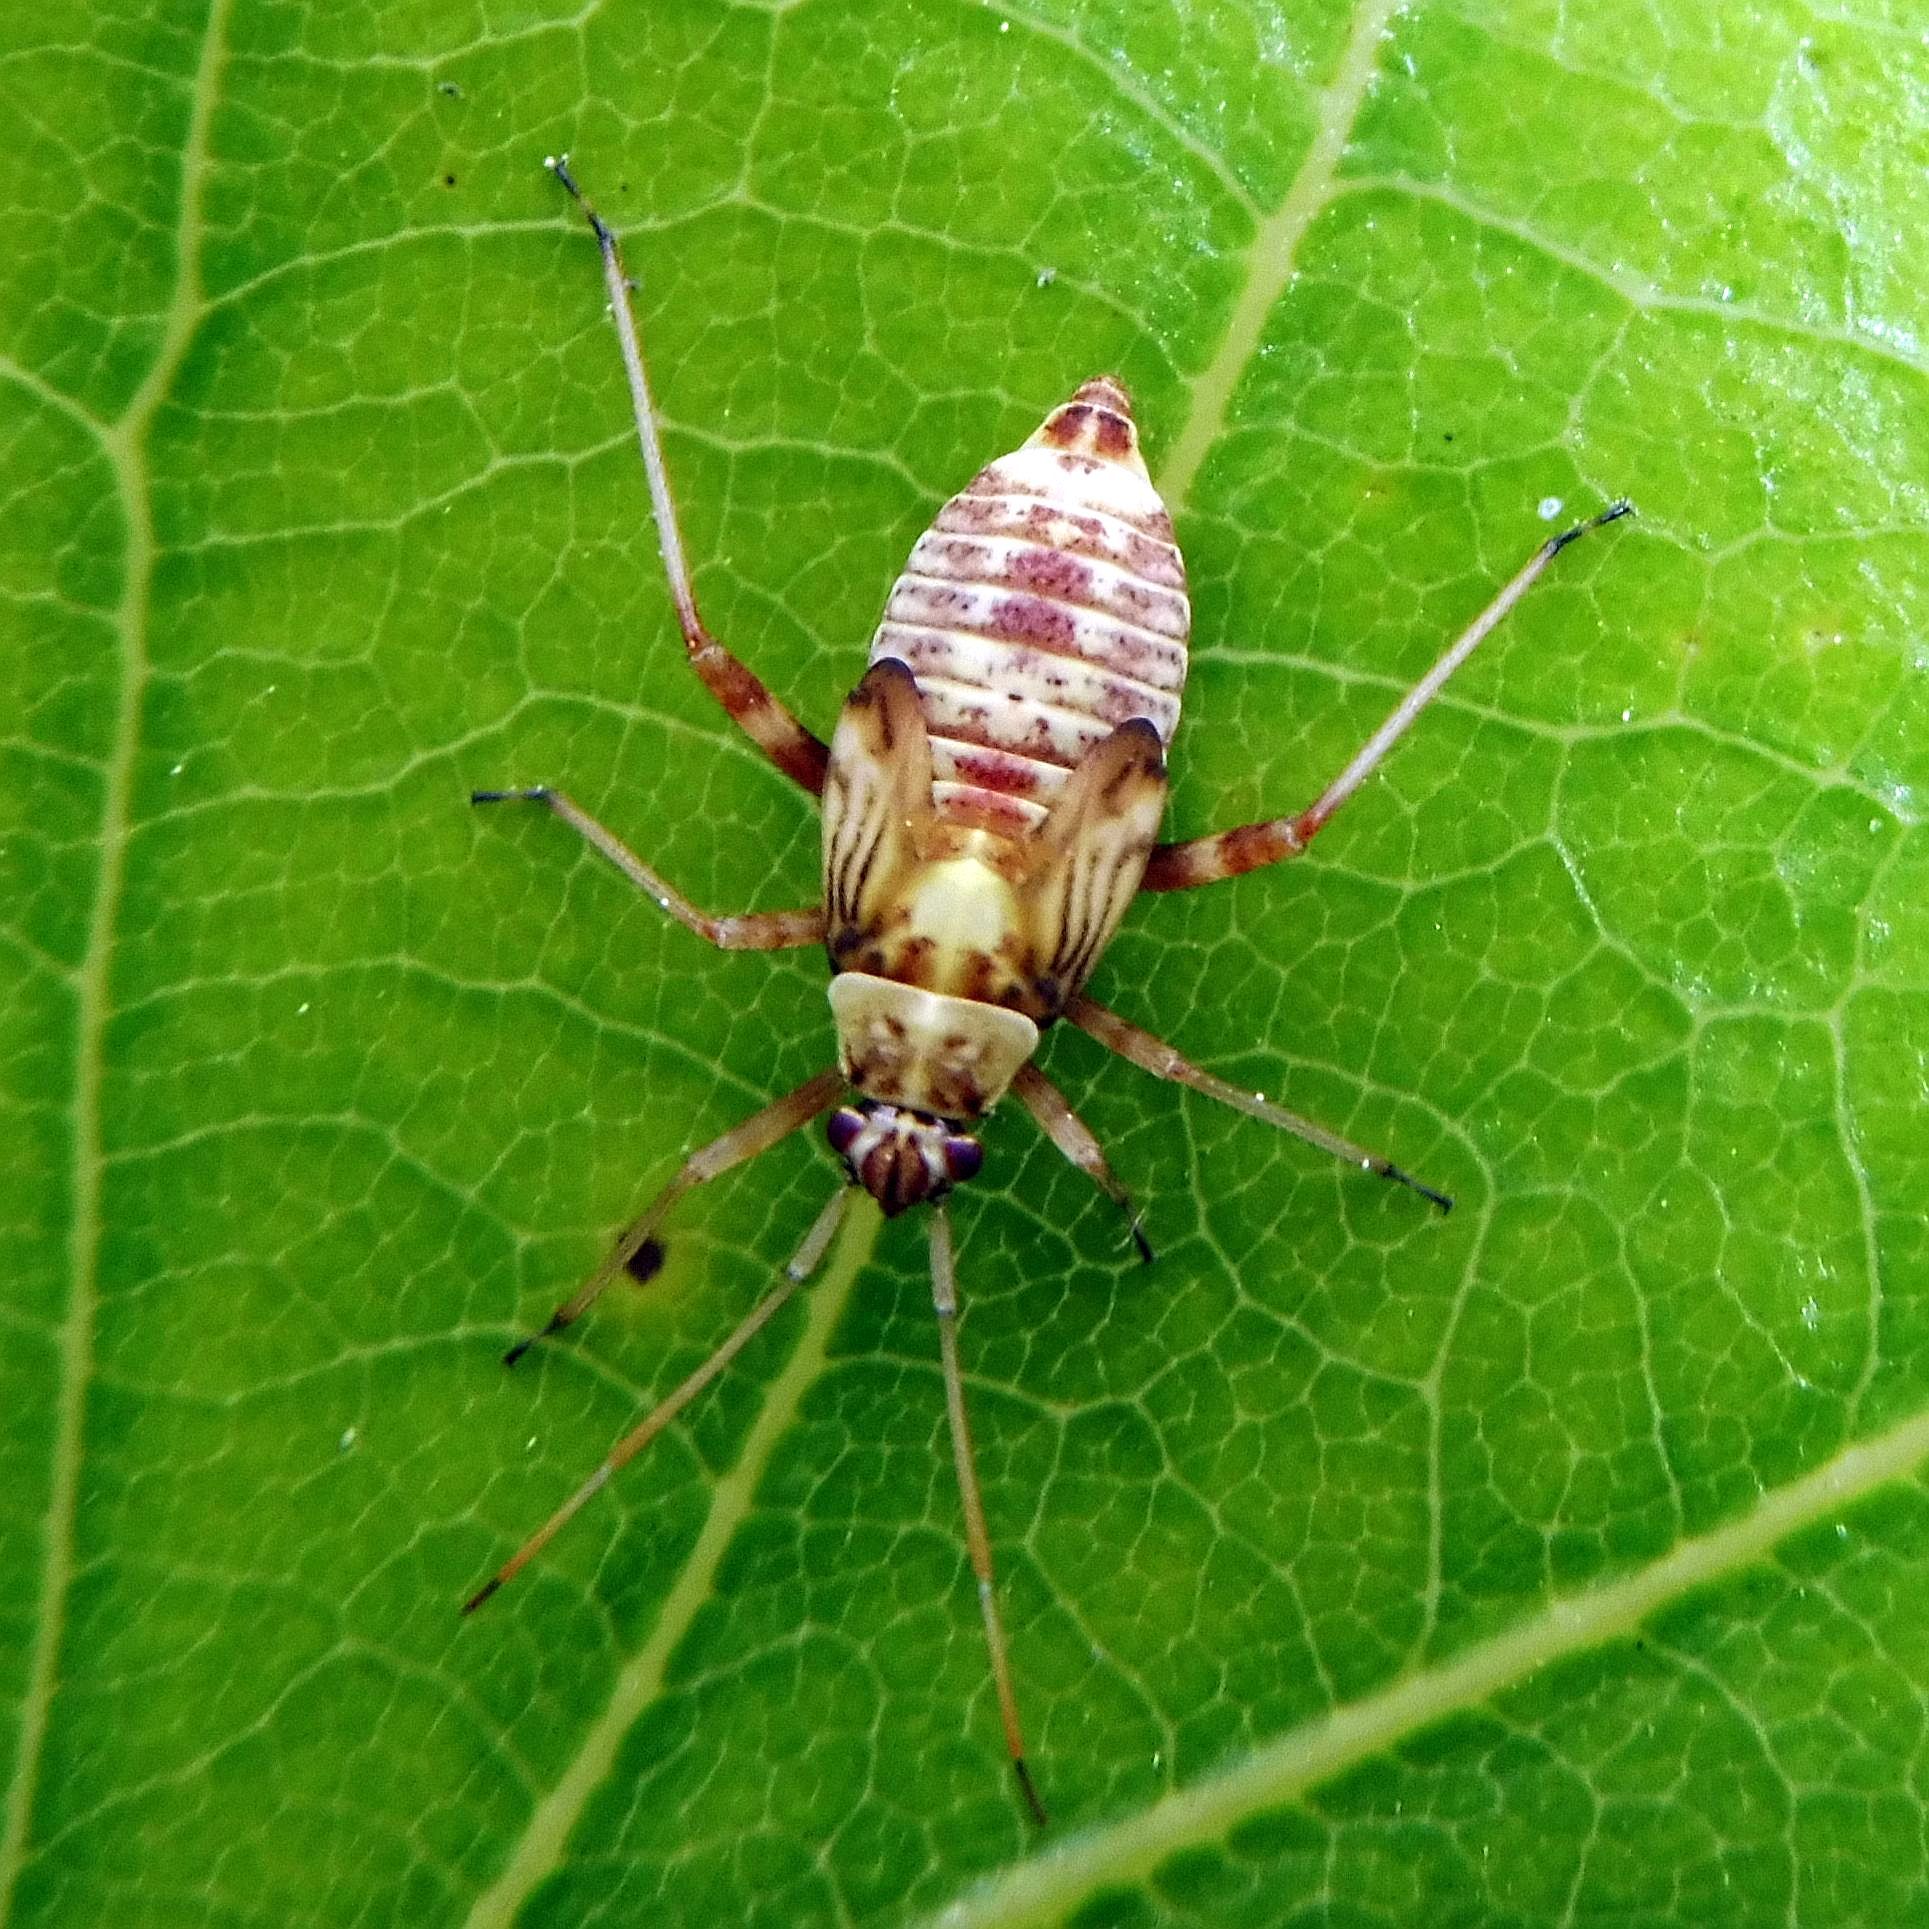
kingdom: Animalia
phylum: Arthropoda
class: Insecta
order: Hemiptera
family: Miridae
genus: Rhabdomiris
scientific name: Rhabdomiris striatellus
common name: Plant bug
